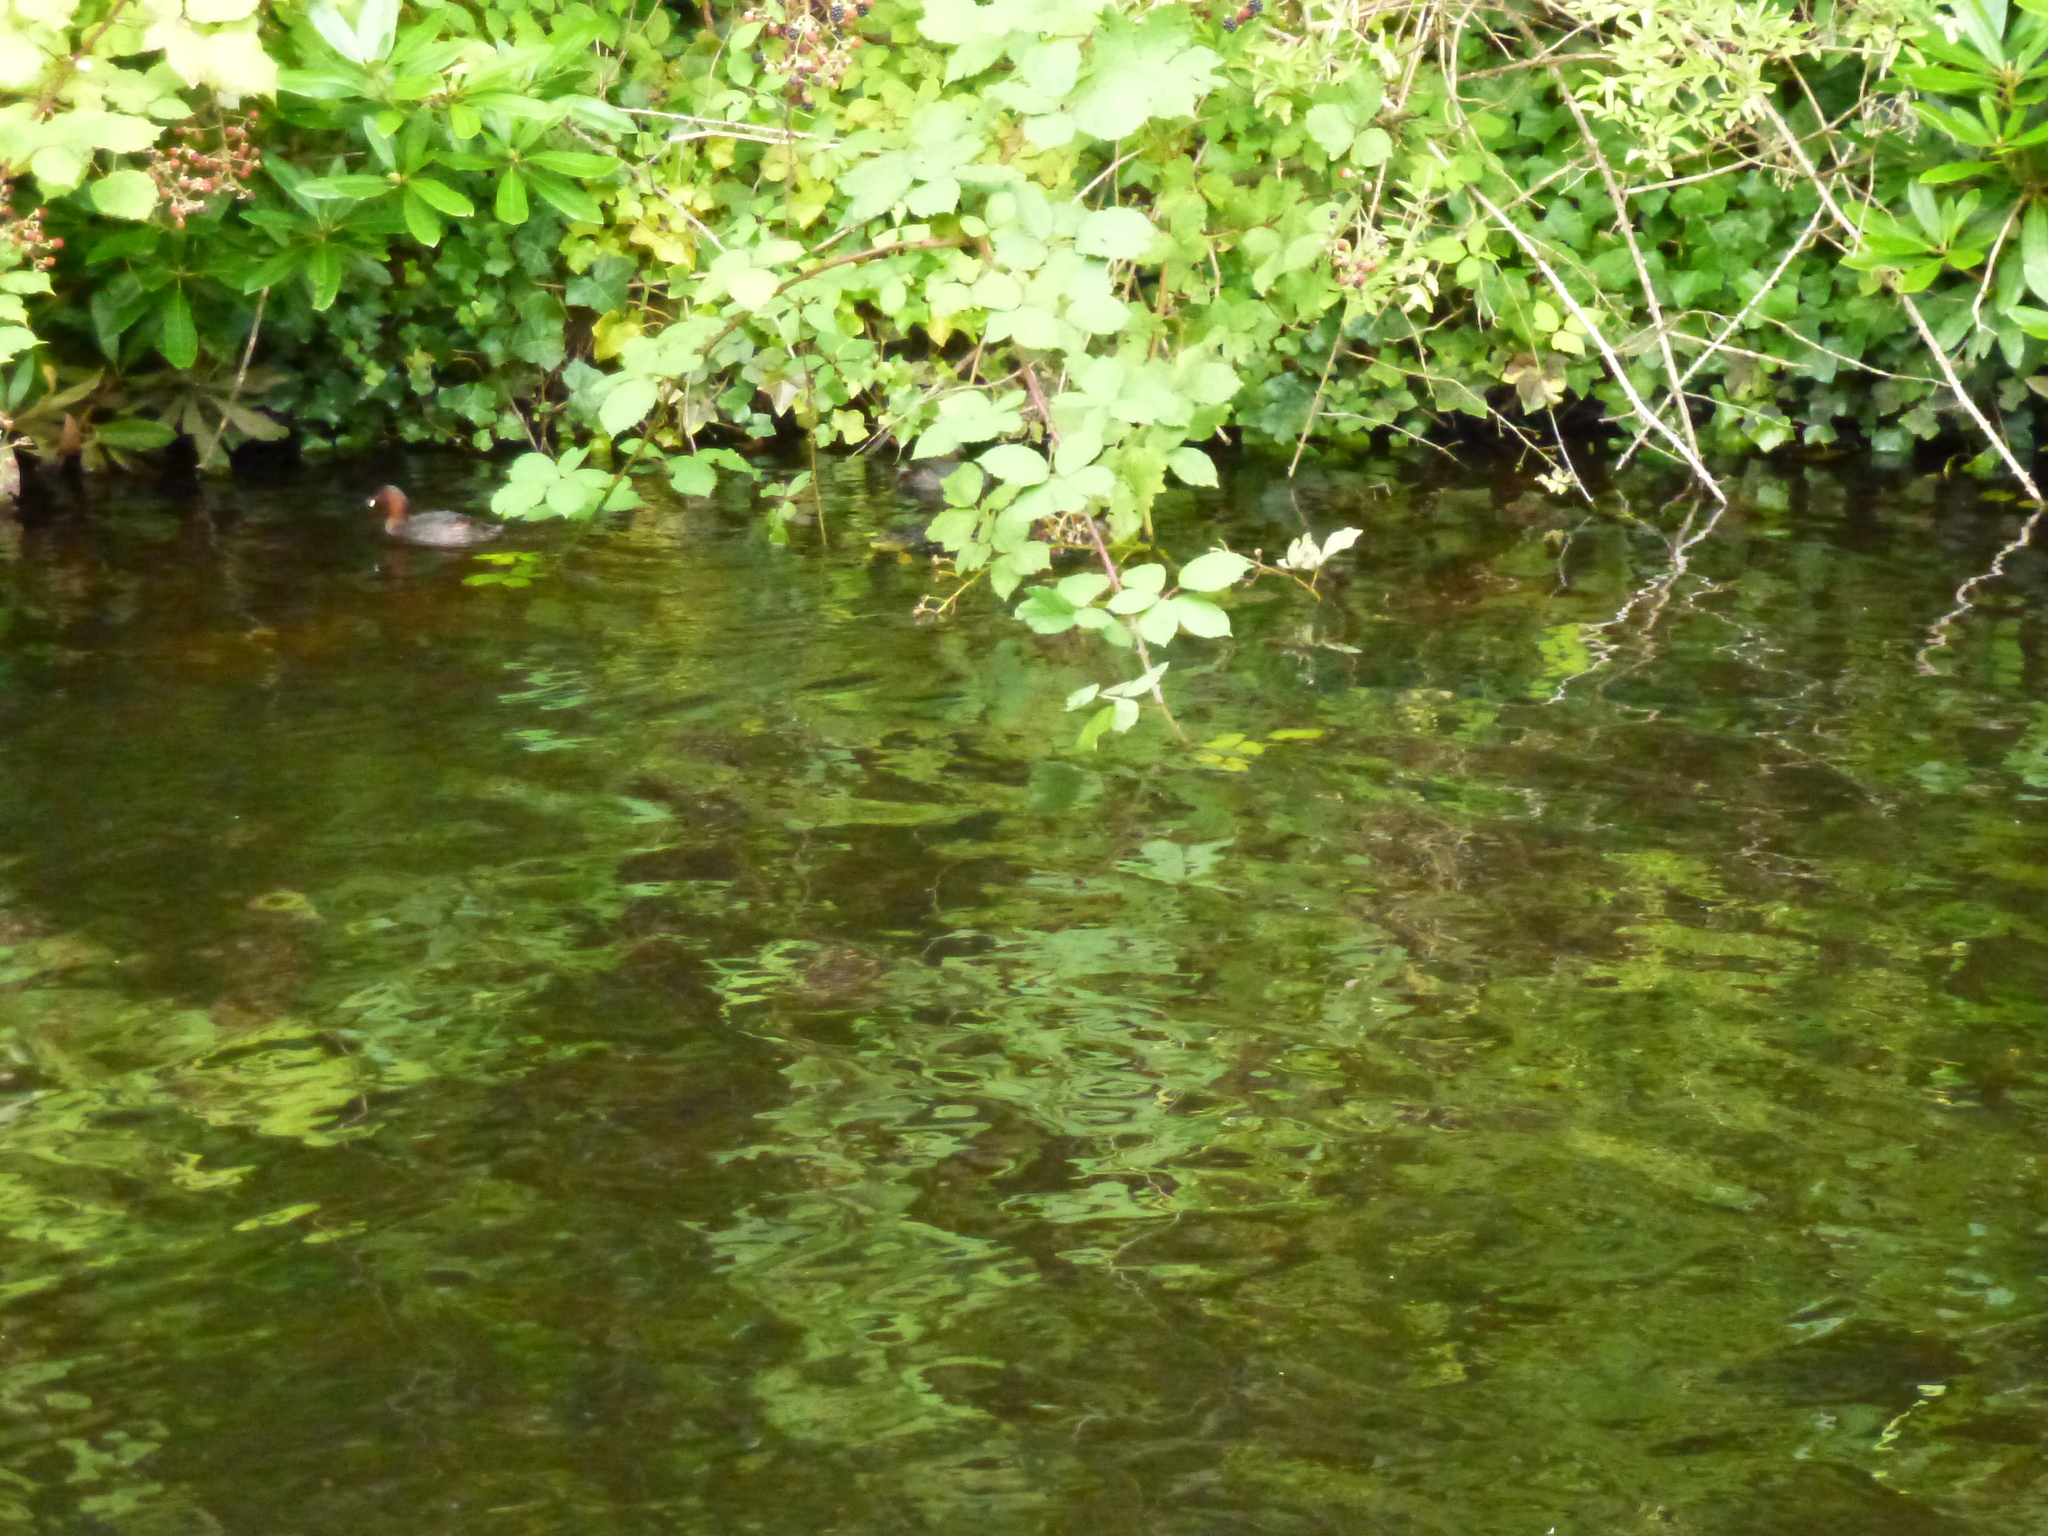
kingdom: Animalia
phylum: Chordata
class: Aves
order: Podicipediformes
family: Podicipedidae
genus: Tachybaptus
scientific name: Tachybaptus ruficollis
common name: Little grebe
